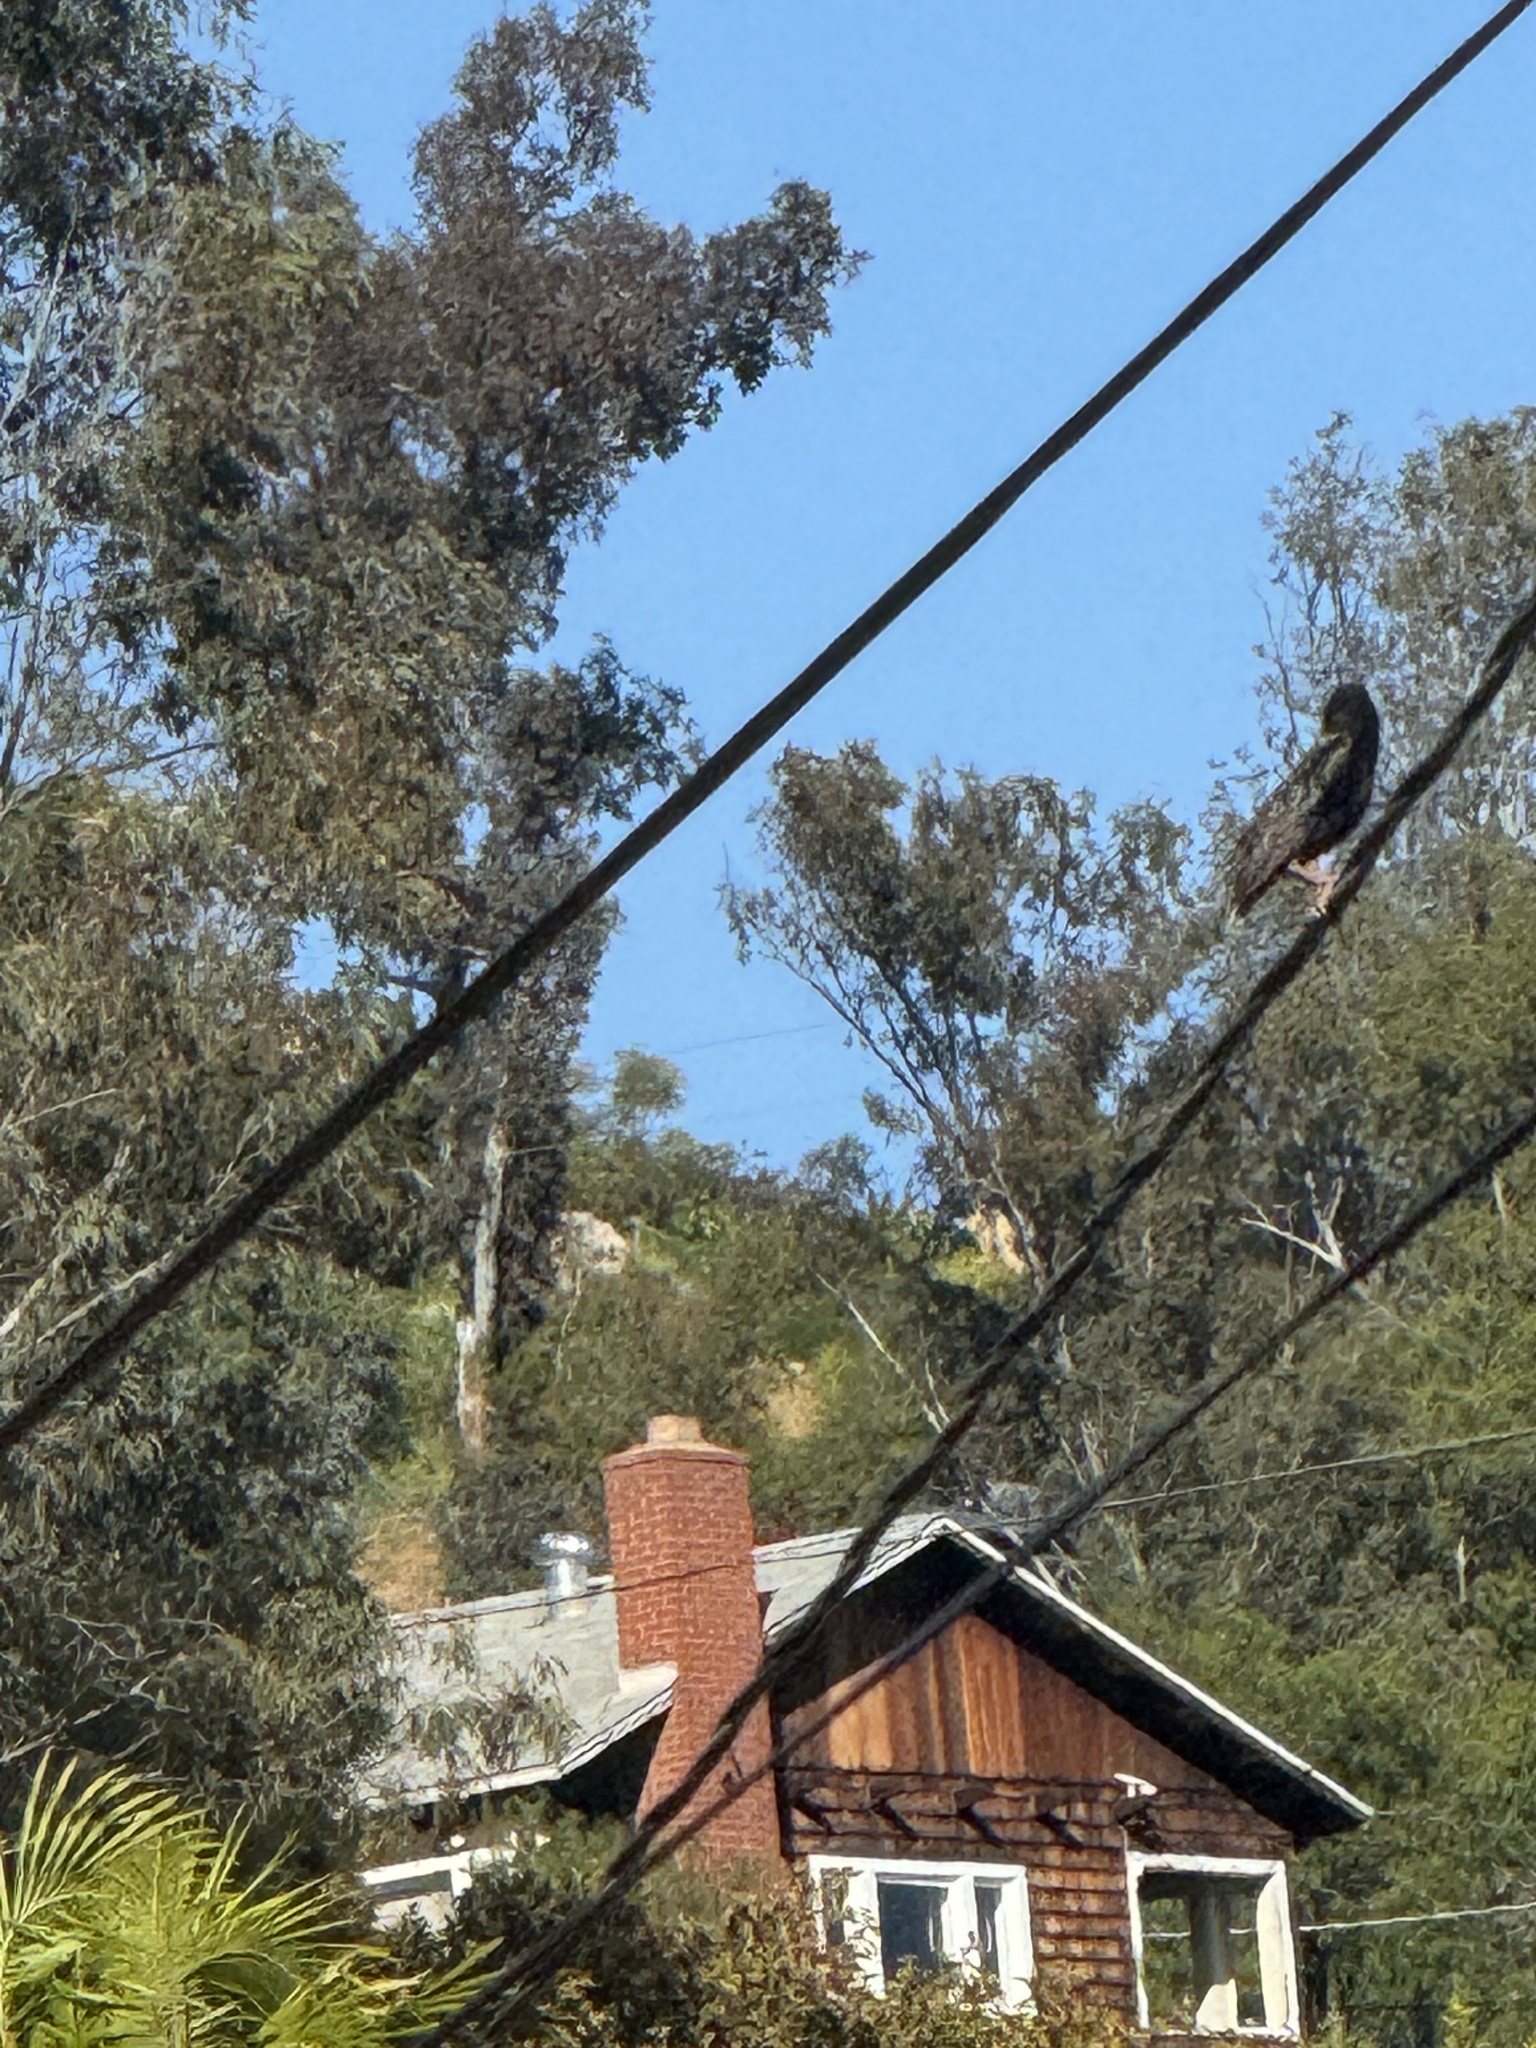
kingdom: Animalia
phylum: Chordata
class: Aves
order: Passeriformes
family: Sturnidae
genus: Sturnus
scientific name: Sturnus vulgaris
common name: Common starling
